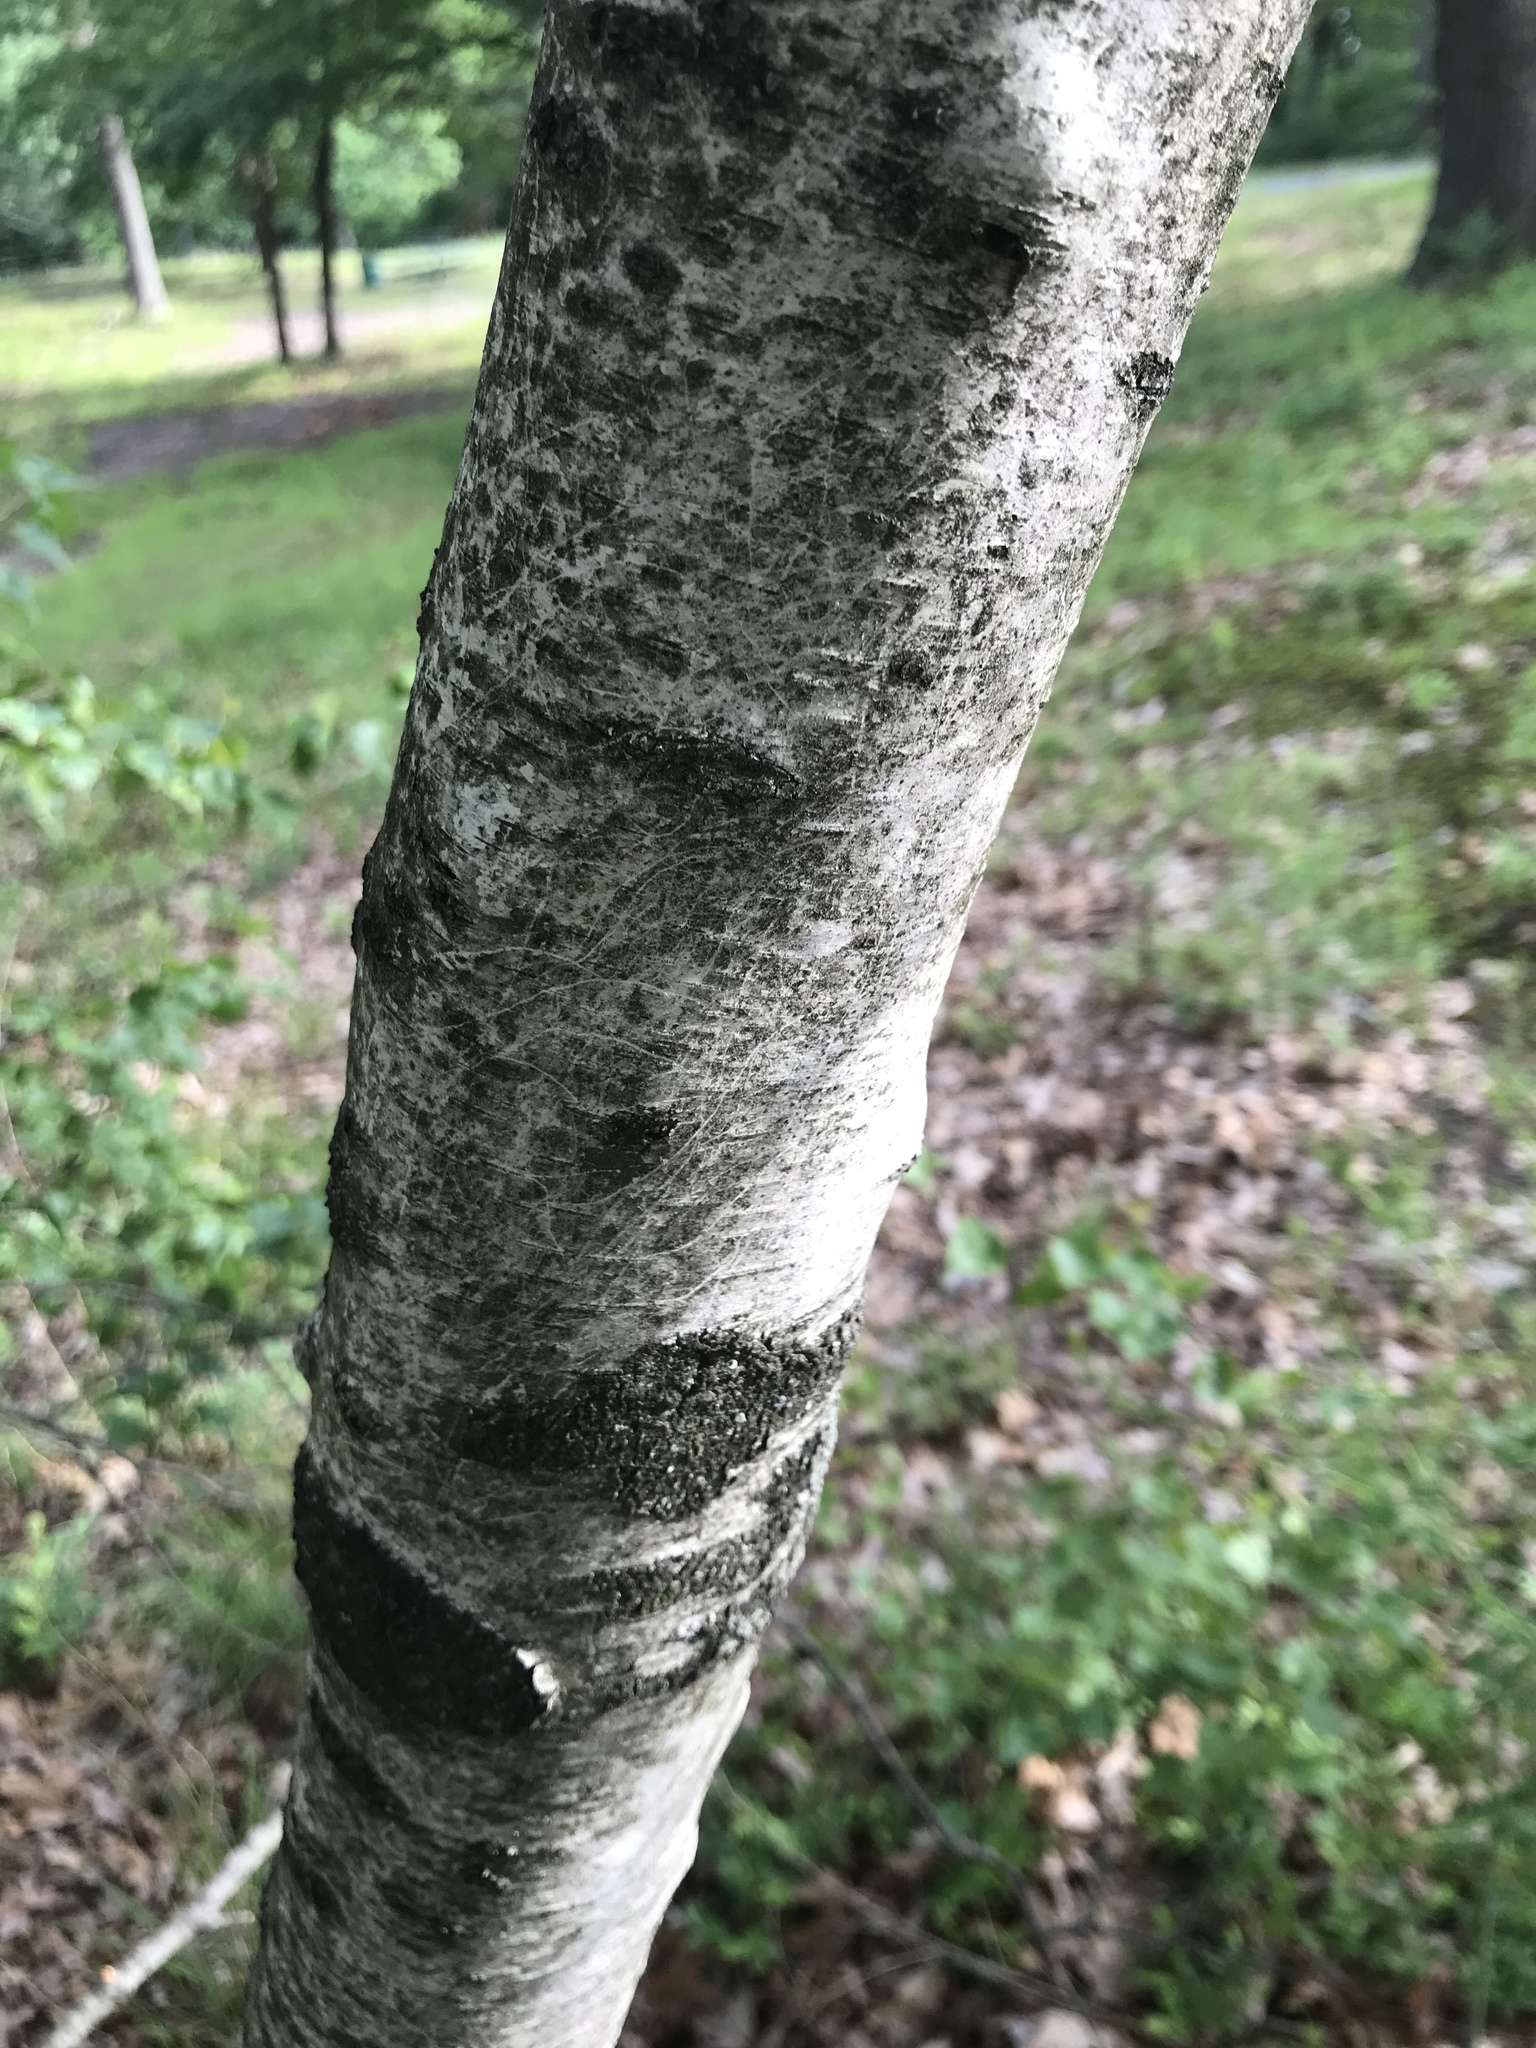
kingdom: Plantae
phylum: Tracheophyta
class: Magnoliopsida
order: Fagales
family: Betulaceae
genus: Betula
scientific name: Betula populifolia
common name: Fire birch
